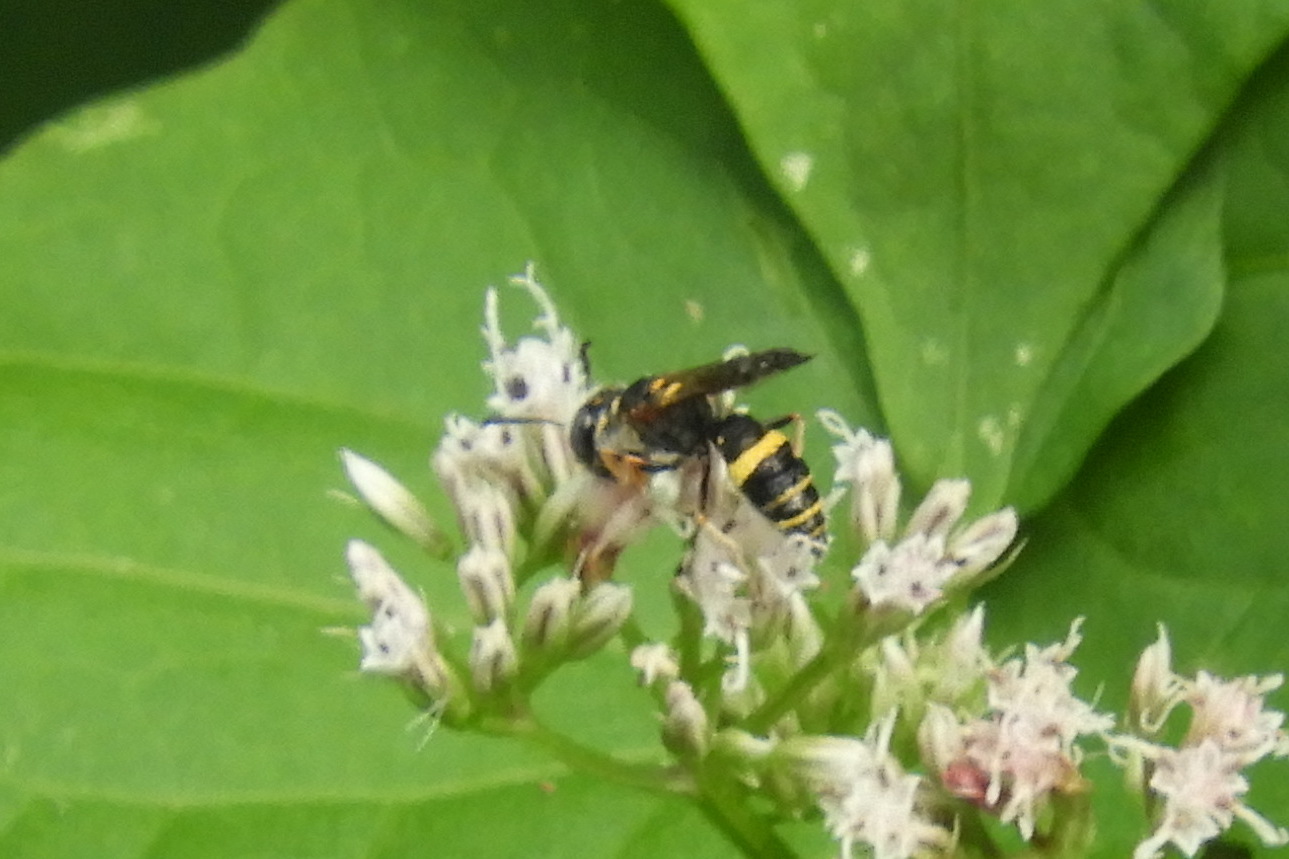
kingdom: Animalia
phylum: Arthropoda
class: Insecta
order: Hymenoptera
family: Crabronidae
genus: Philanthus
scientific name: Philanthus gibbosus
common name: Humped beewolf
